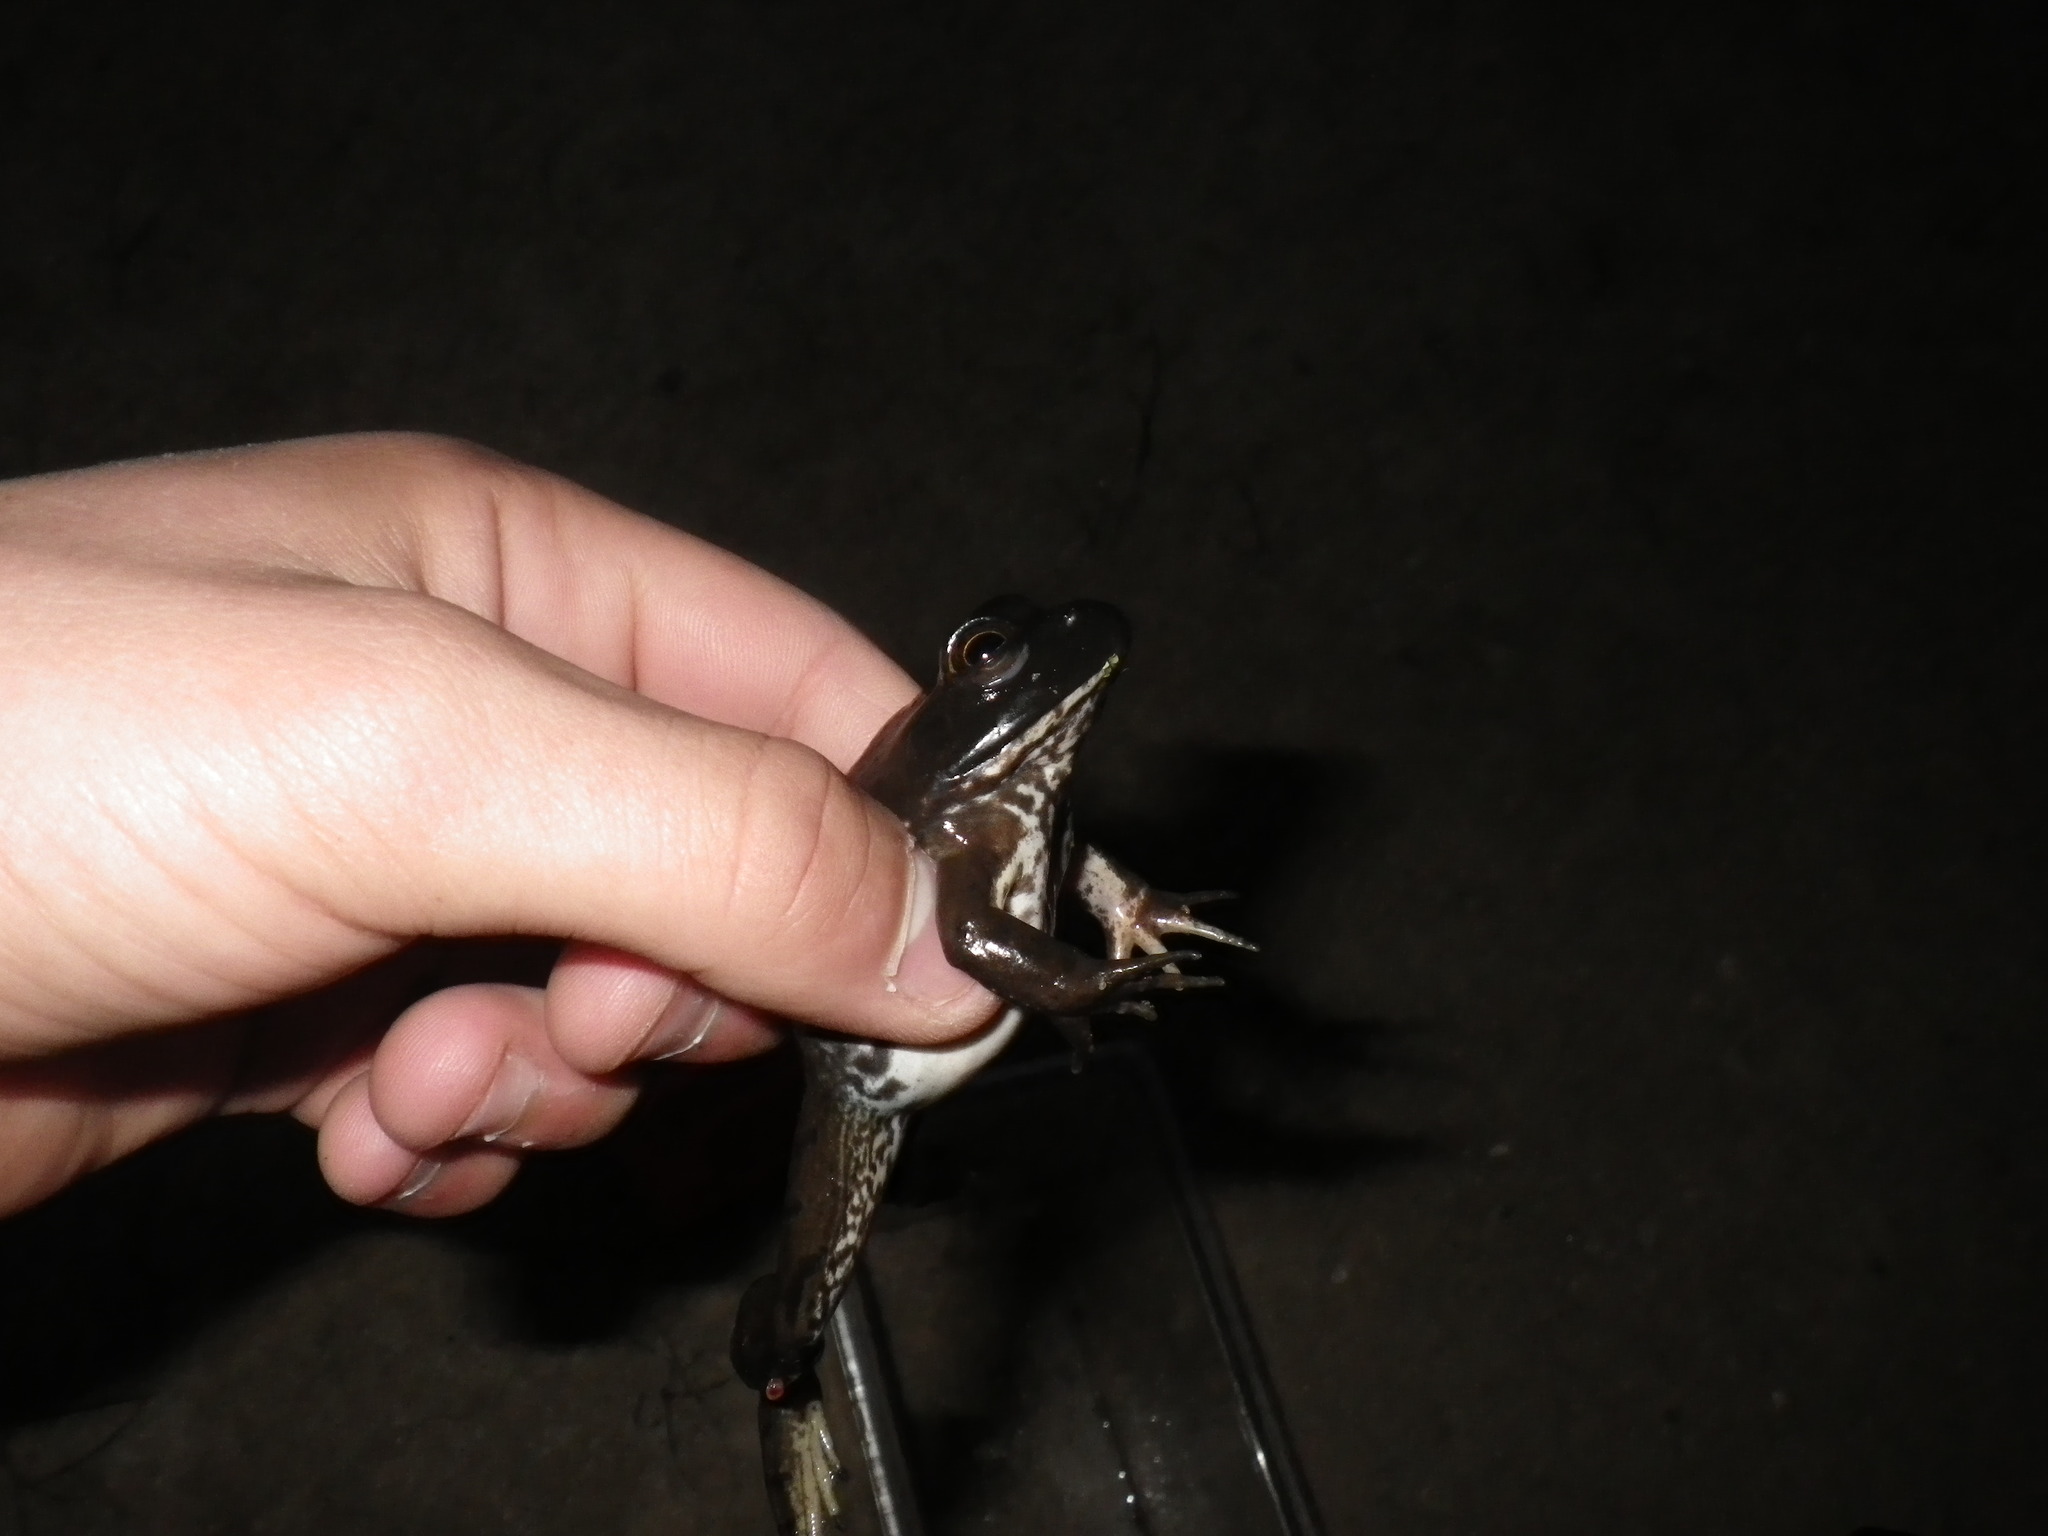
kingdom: Animalia
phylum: Chordata
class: Amphibia
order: Anura
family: Ranidae
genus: Lithobates
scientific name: Lithobates catesbeianus
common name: American bullfrog
